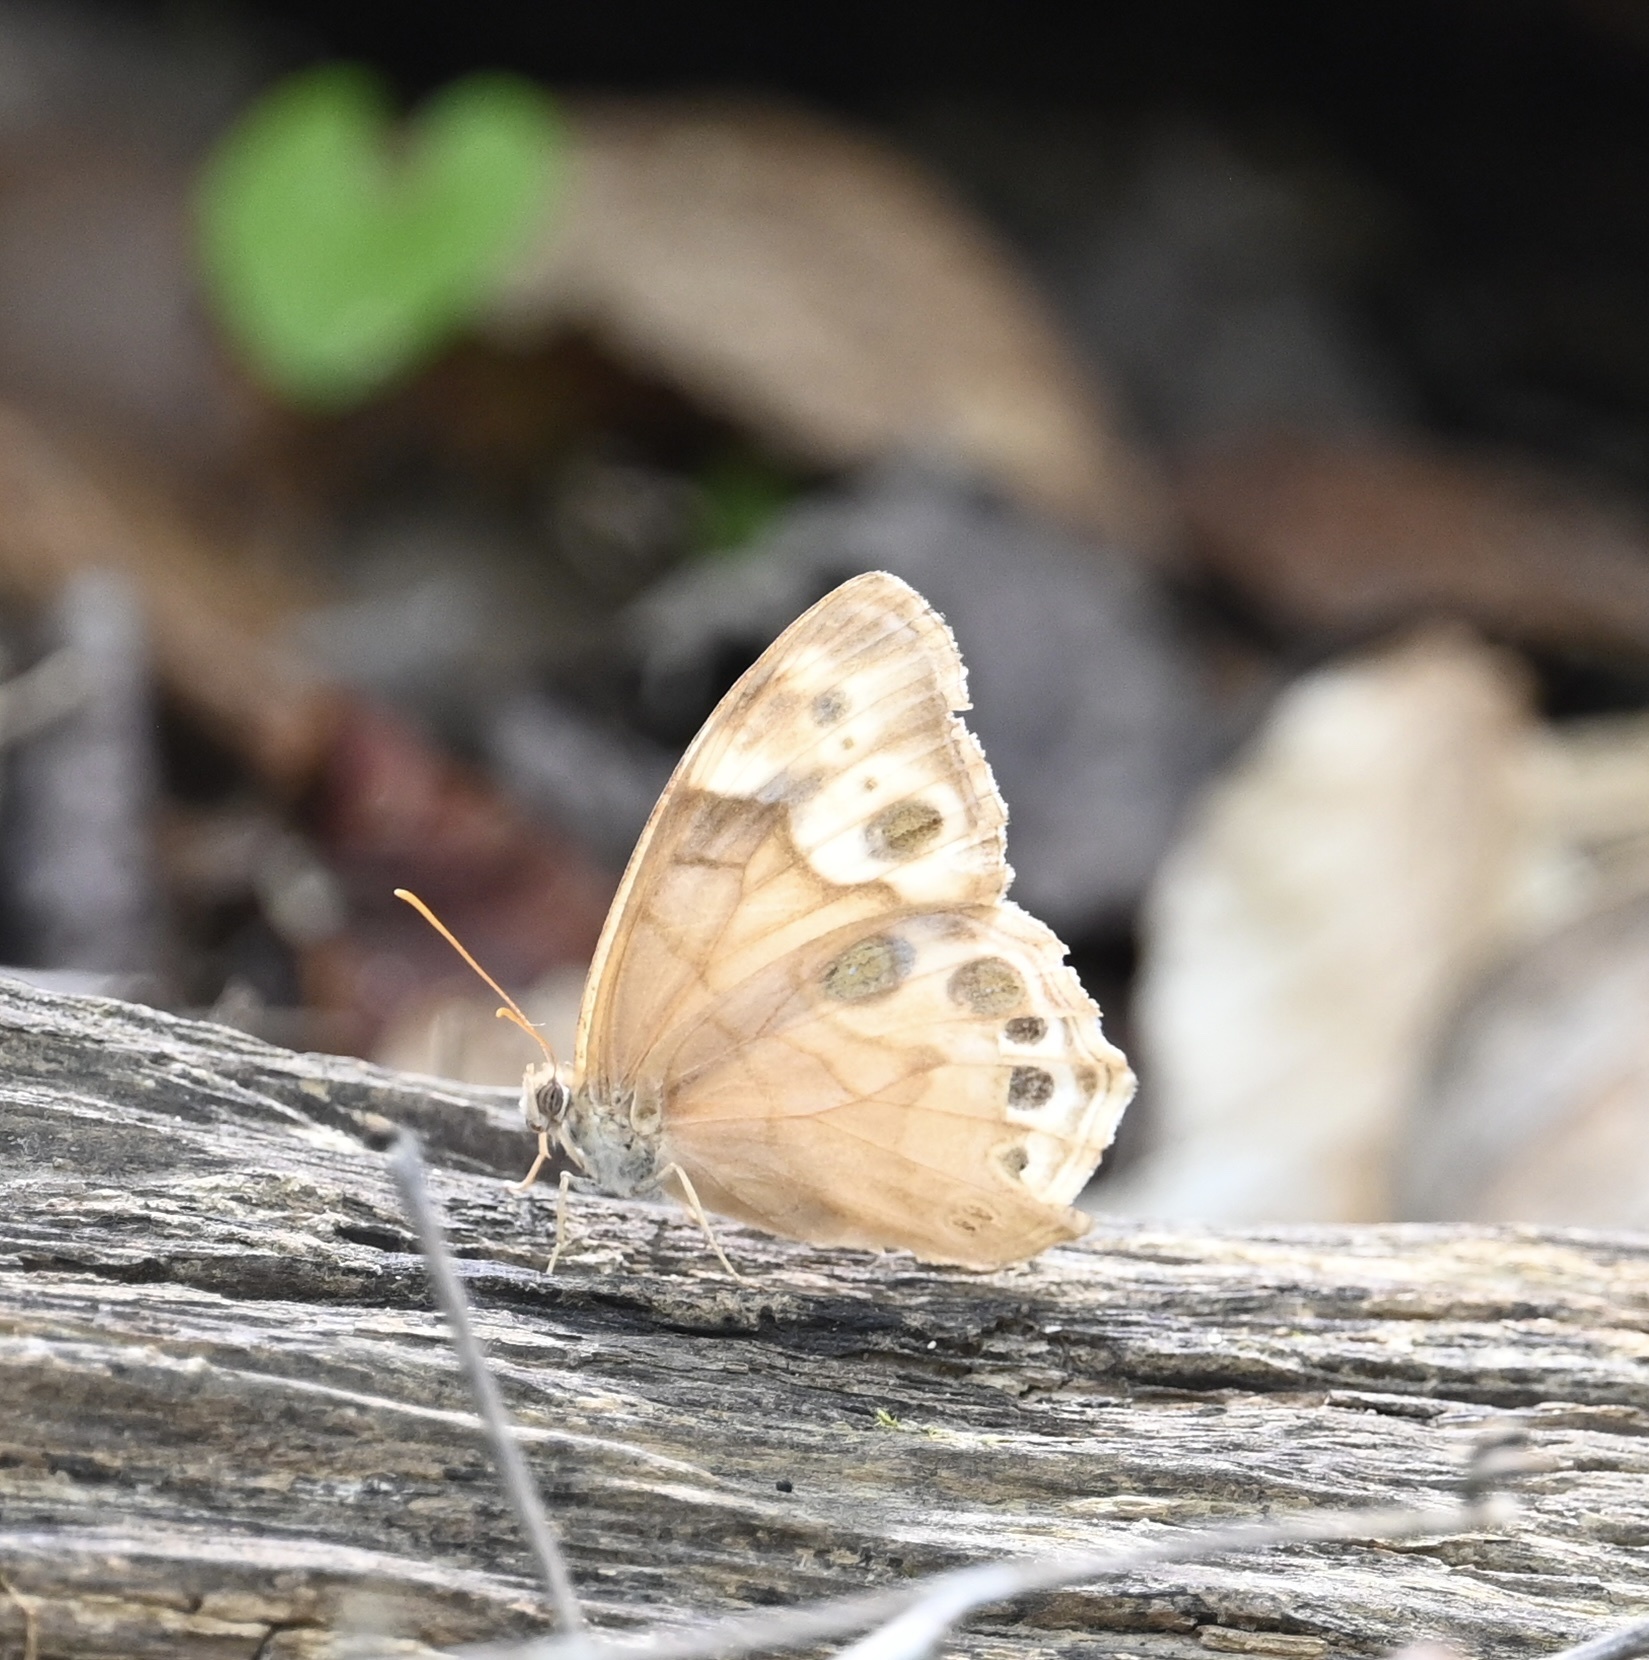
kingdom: Animalia
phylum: Arthropoda
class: Insecta
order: Lepidoptera
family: Nymphalidae
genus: Enodia
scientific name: Enodia portlandia
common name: Southern pearly-eye
